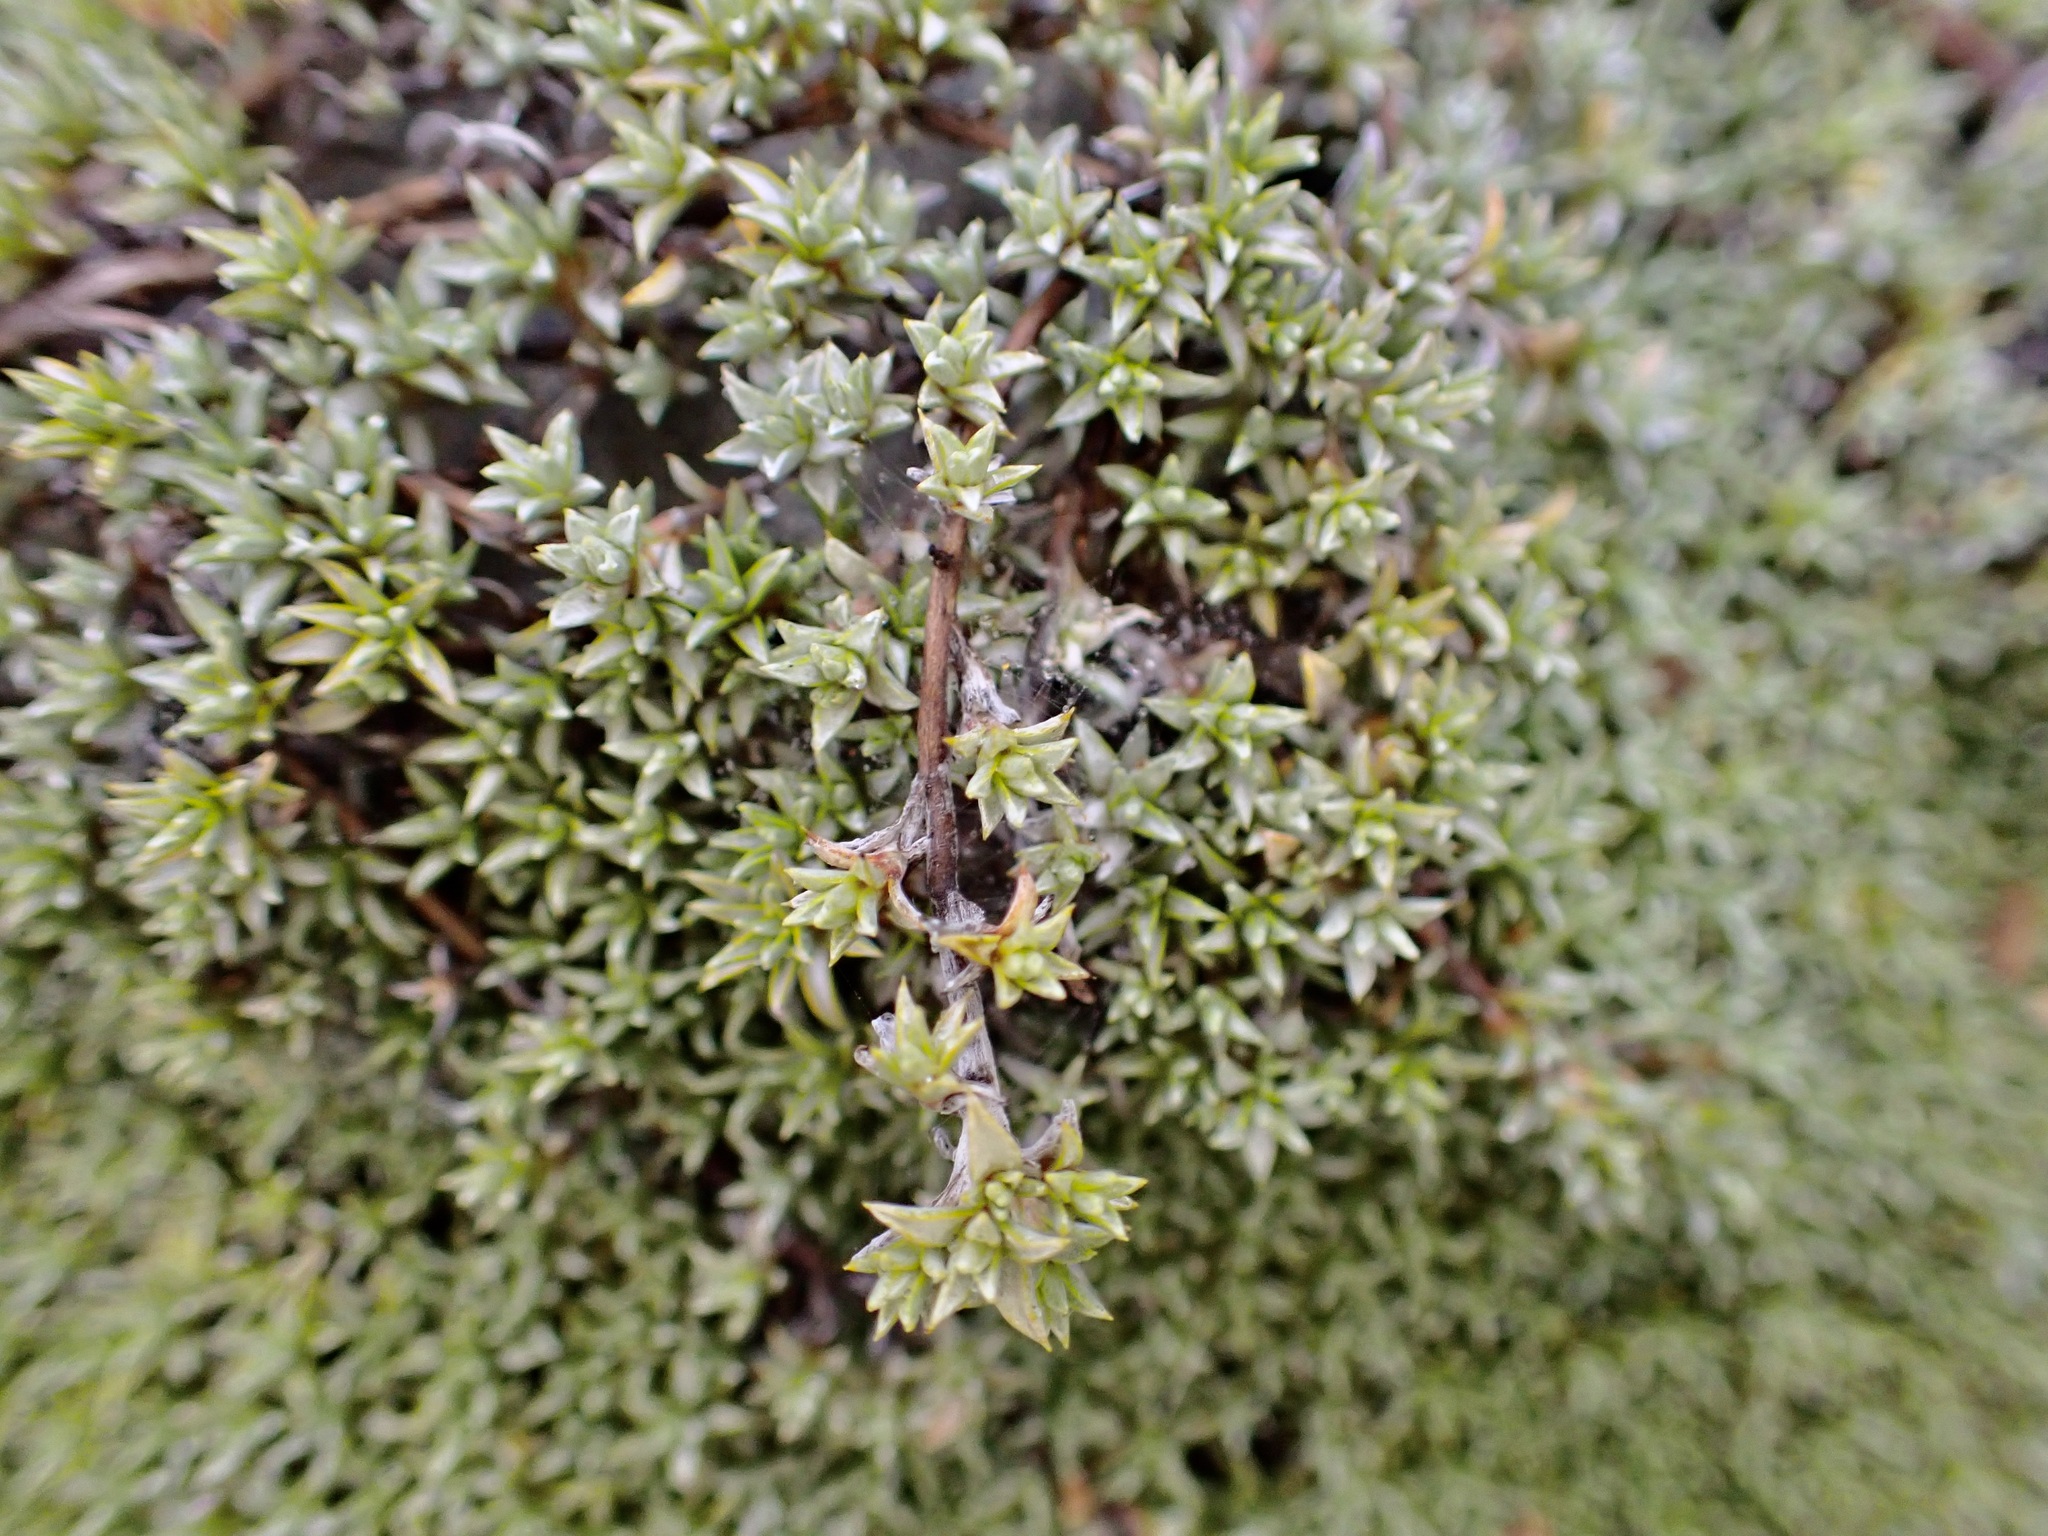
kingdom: Plantae
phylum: Tracheophyta
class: Magnoliopsida
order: Asterales
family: Asteraceae
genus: Raoulia
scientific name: Raoulia tenuicaulis
